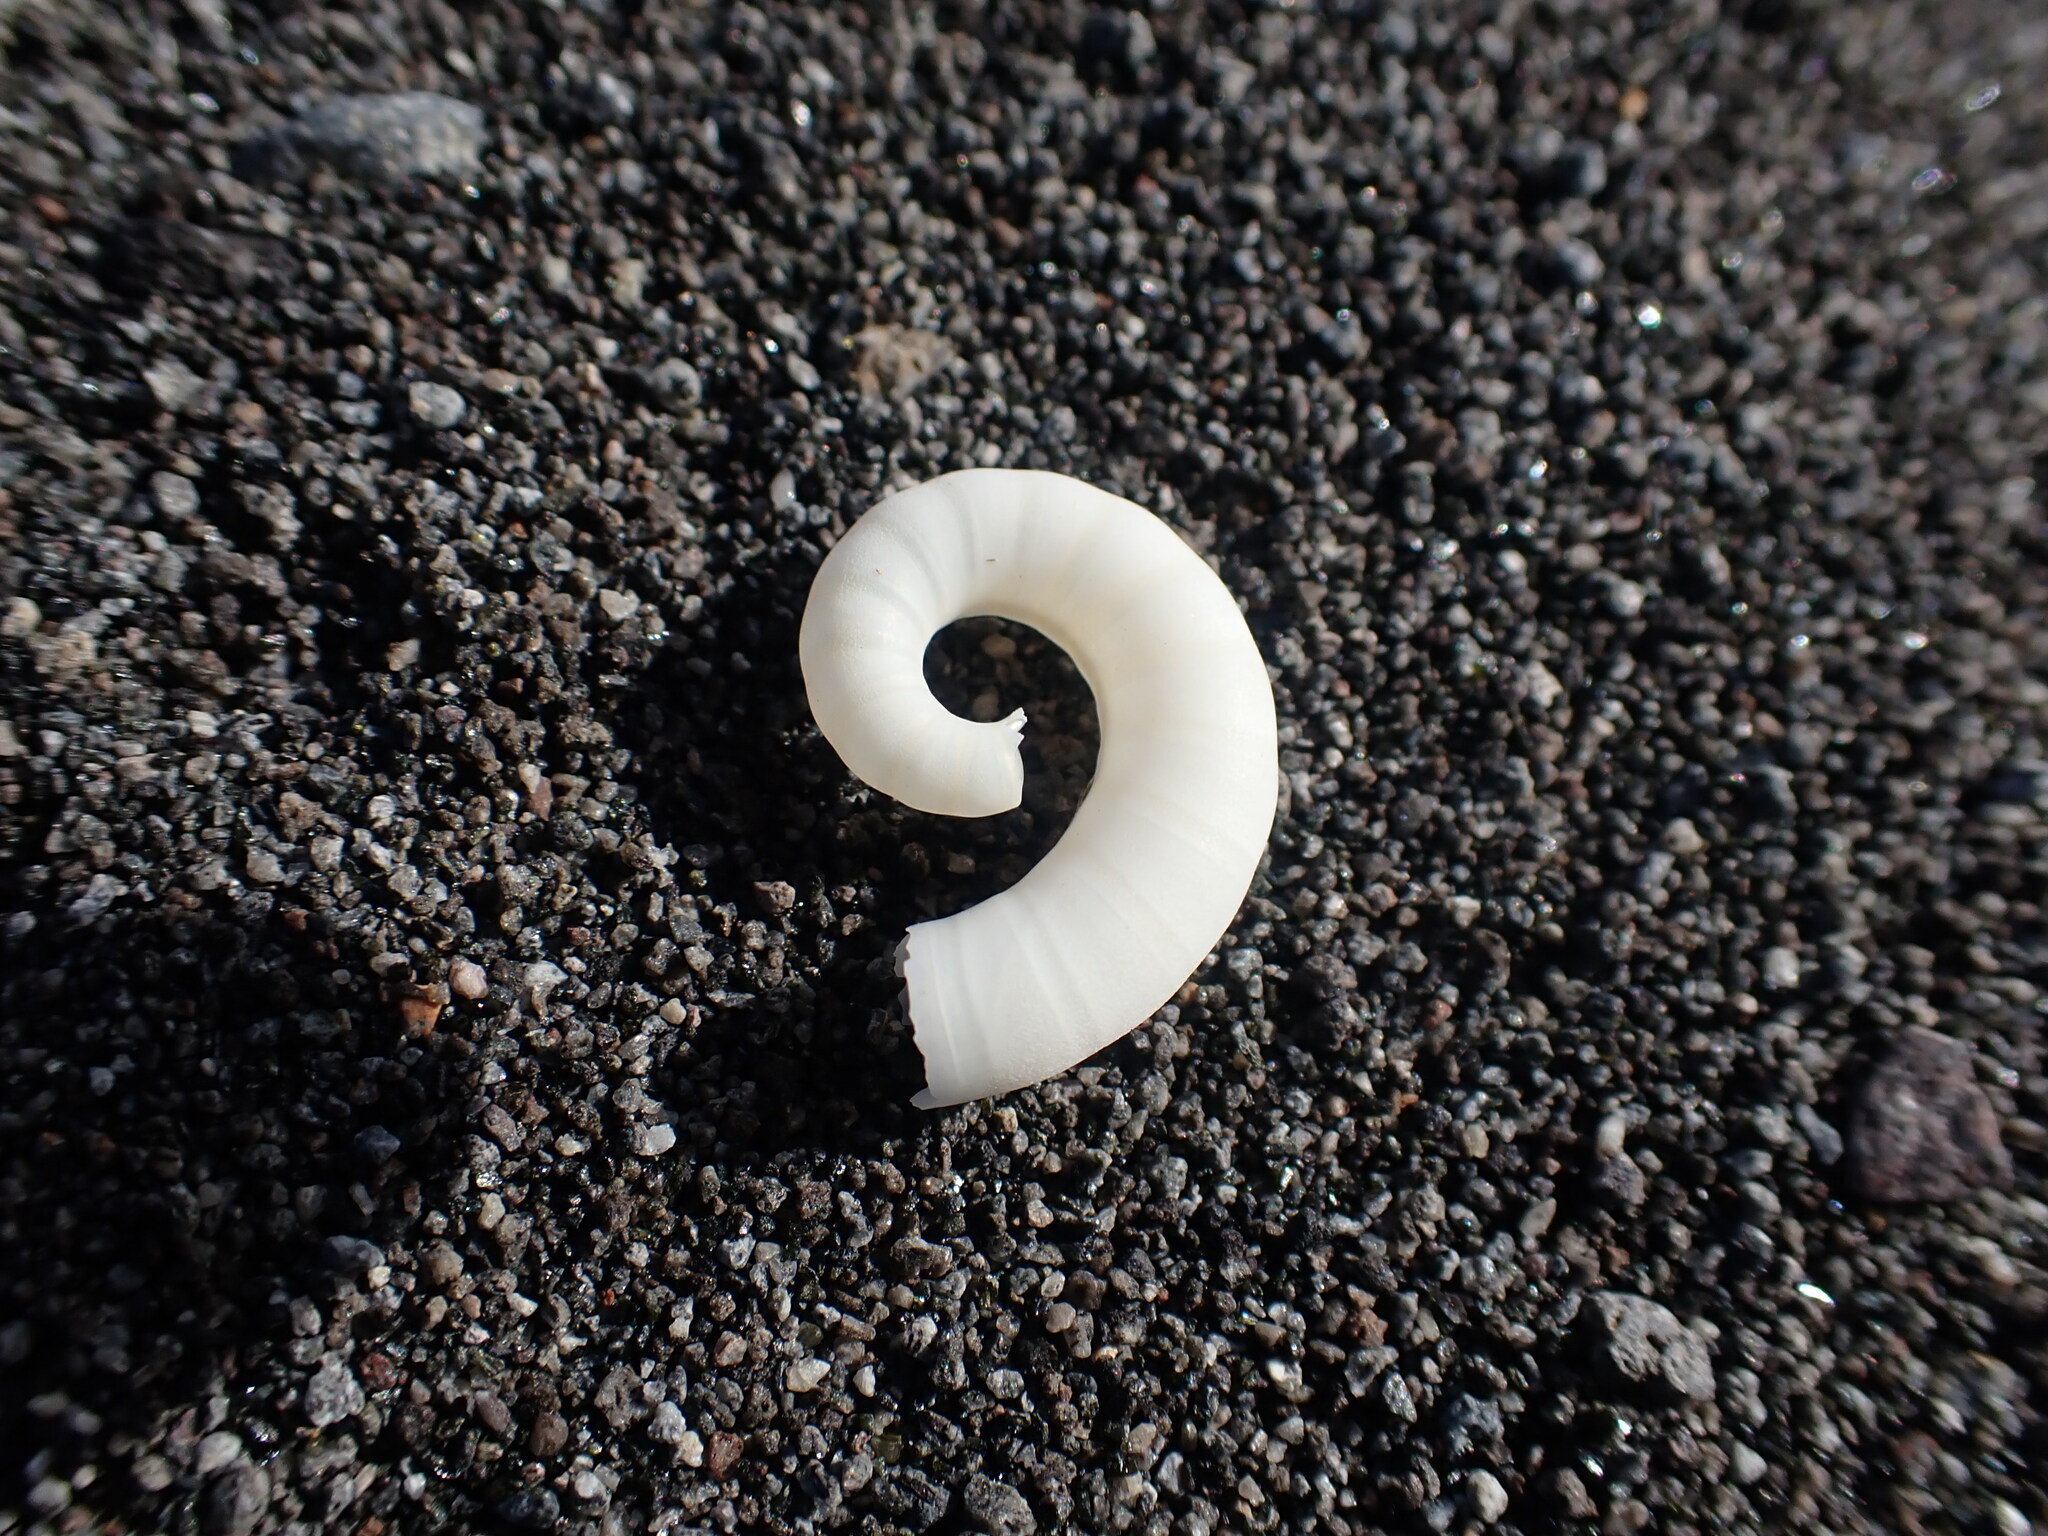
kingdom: Animalia
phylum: Mollusca
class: Cephalopoda
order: Spirulida
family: Spirulidae
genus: Spirula
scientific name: Spirula spirula
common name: Ram's horn squid
